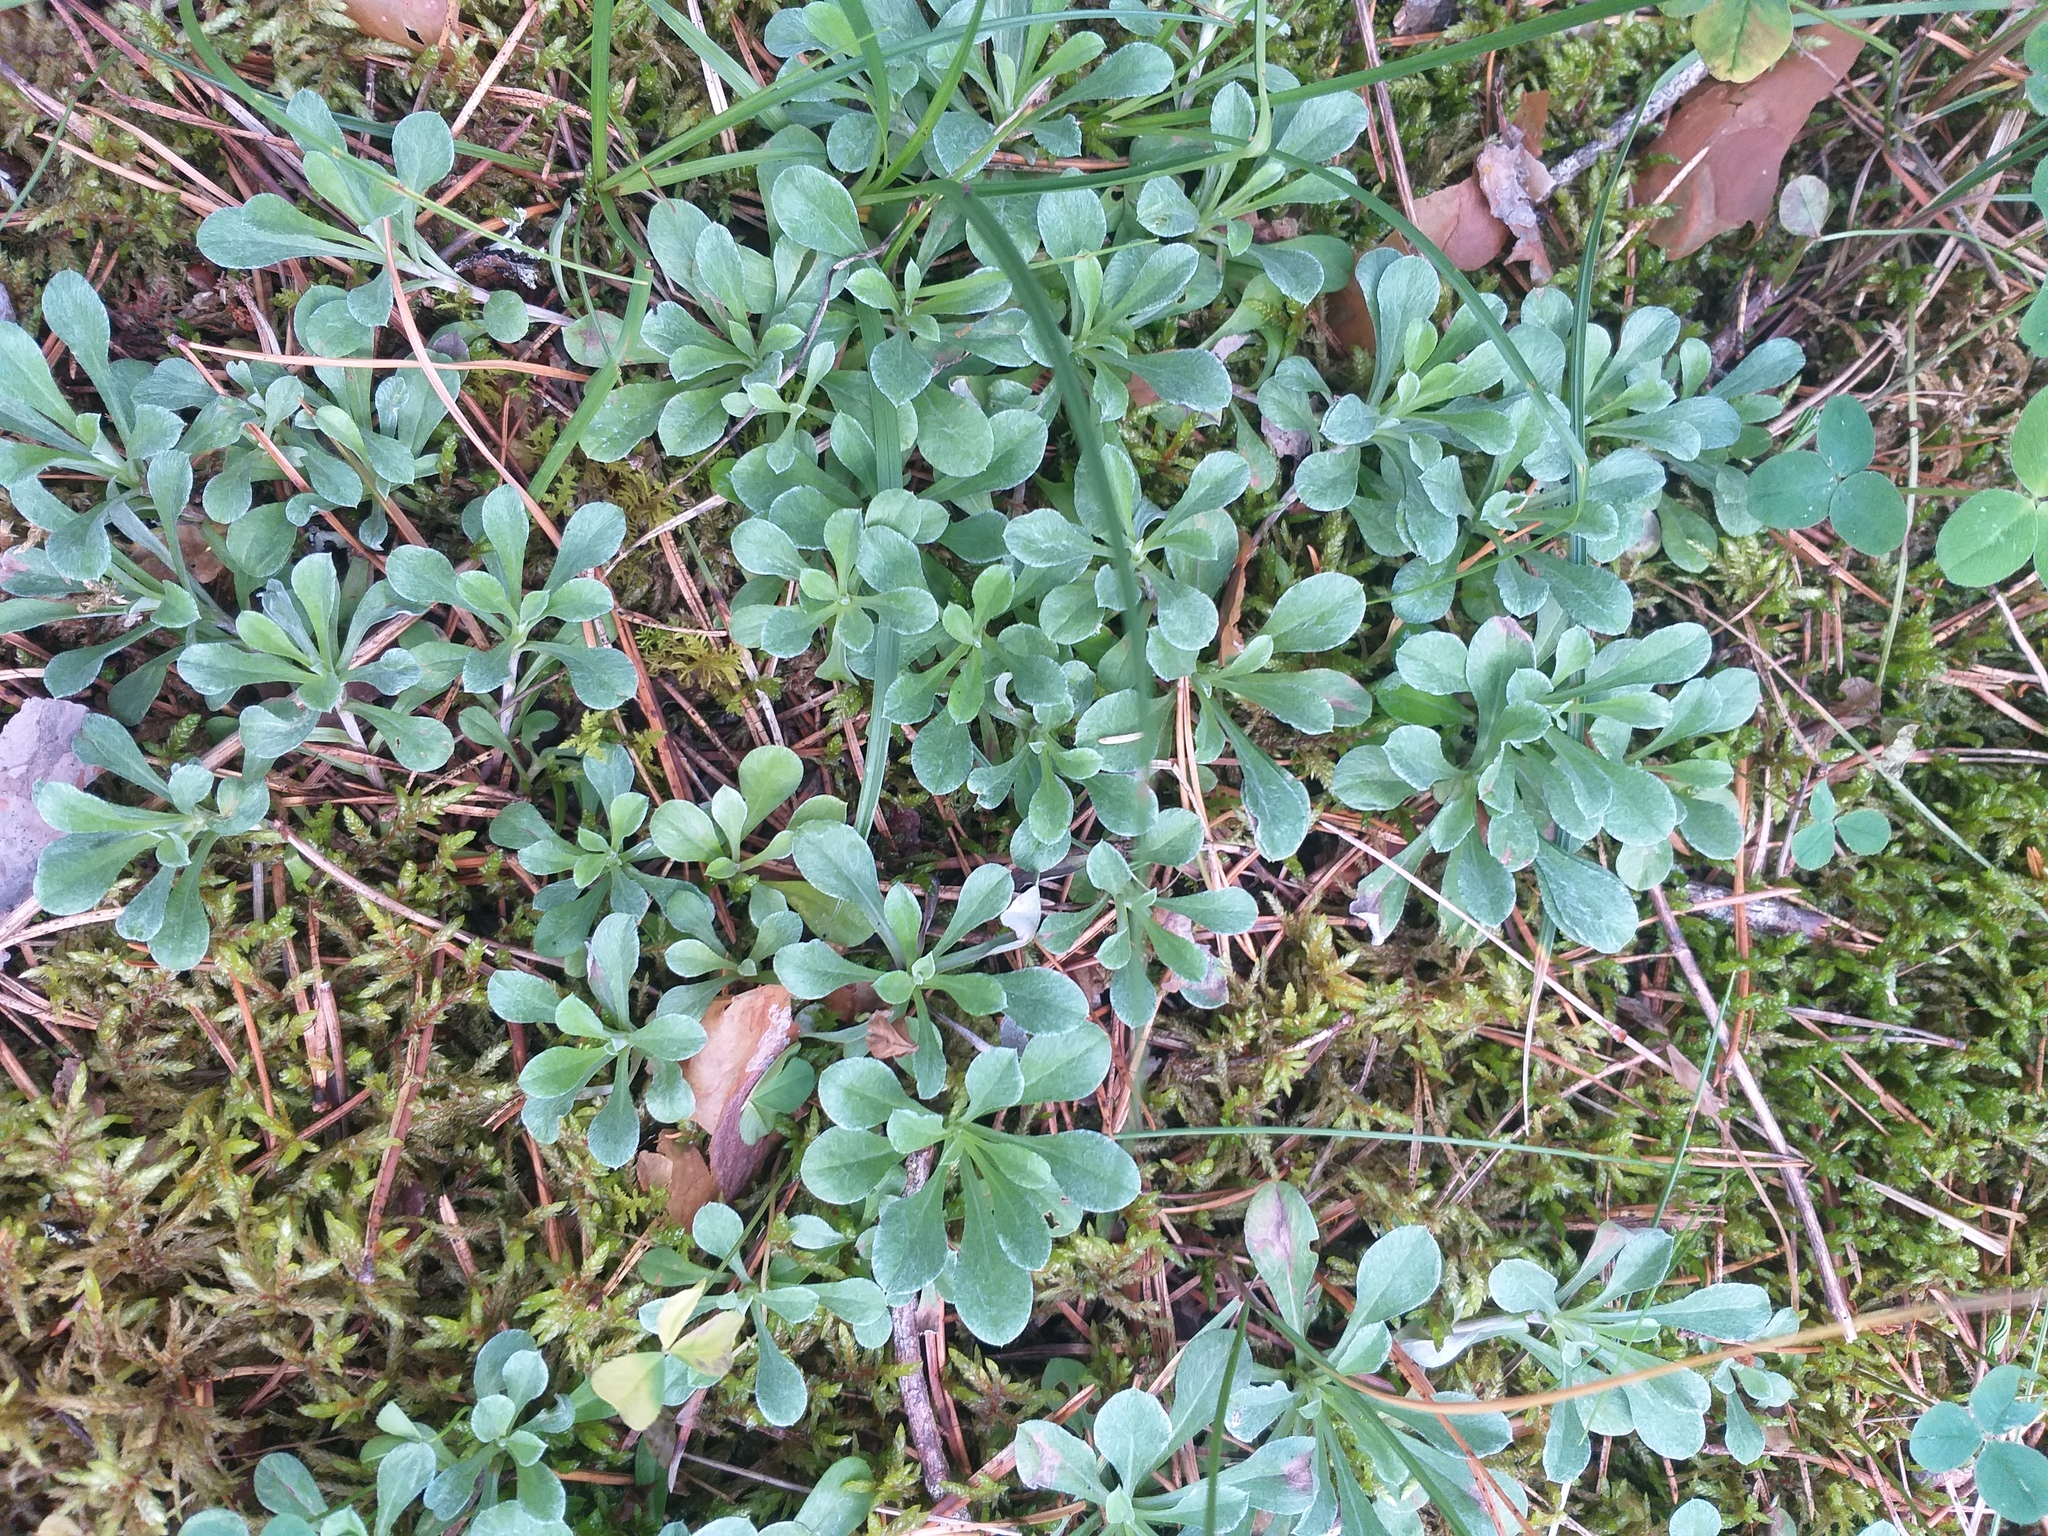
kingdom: Plantae
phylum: Tracheophyta
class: Magnoliopsida
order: Asterales
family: Asteraceae
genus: Antennaria
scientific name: Antennaria dioica
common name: Mountain everlasting
